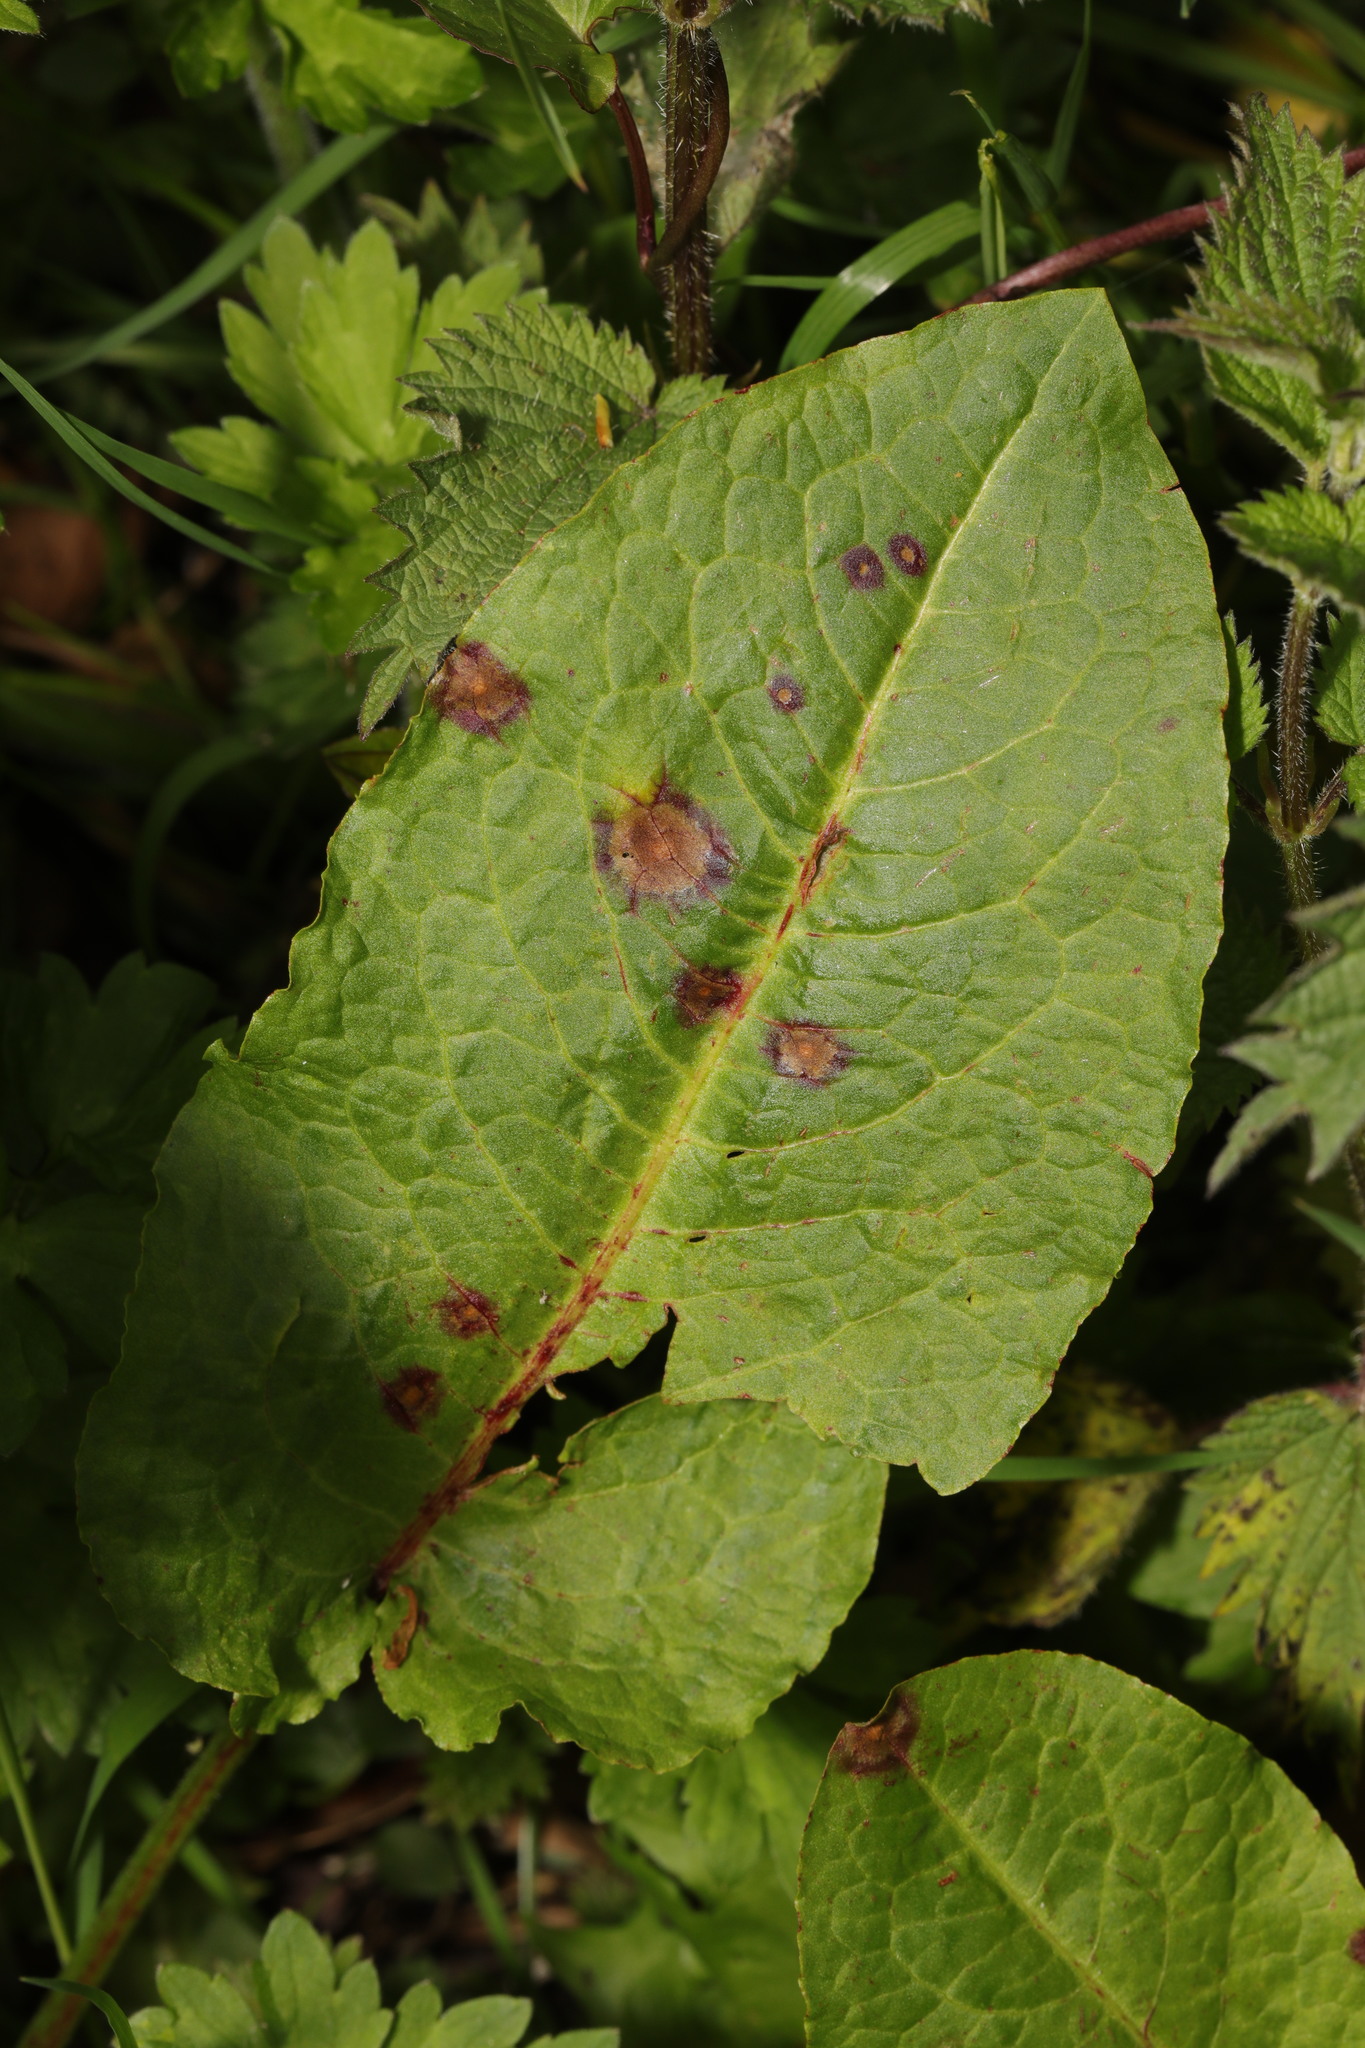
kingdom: Plantae
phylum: Tracheophyta
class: Magnoliopsida
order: Caryophyllales
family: Polygonaceae
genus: Rumex
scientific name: Rumex obtusifolius
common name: Bitter dock
